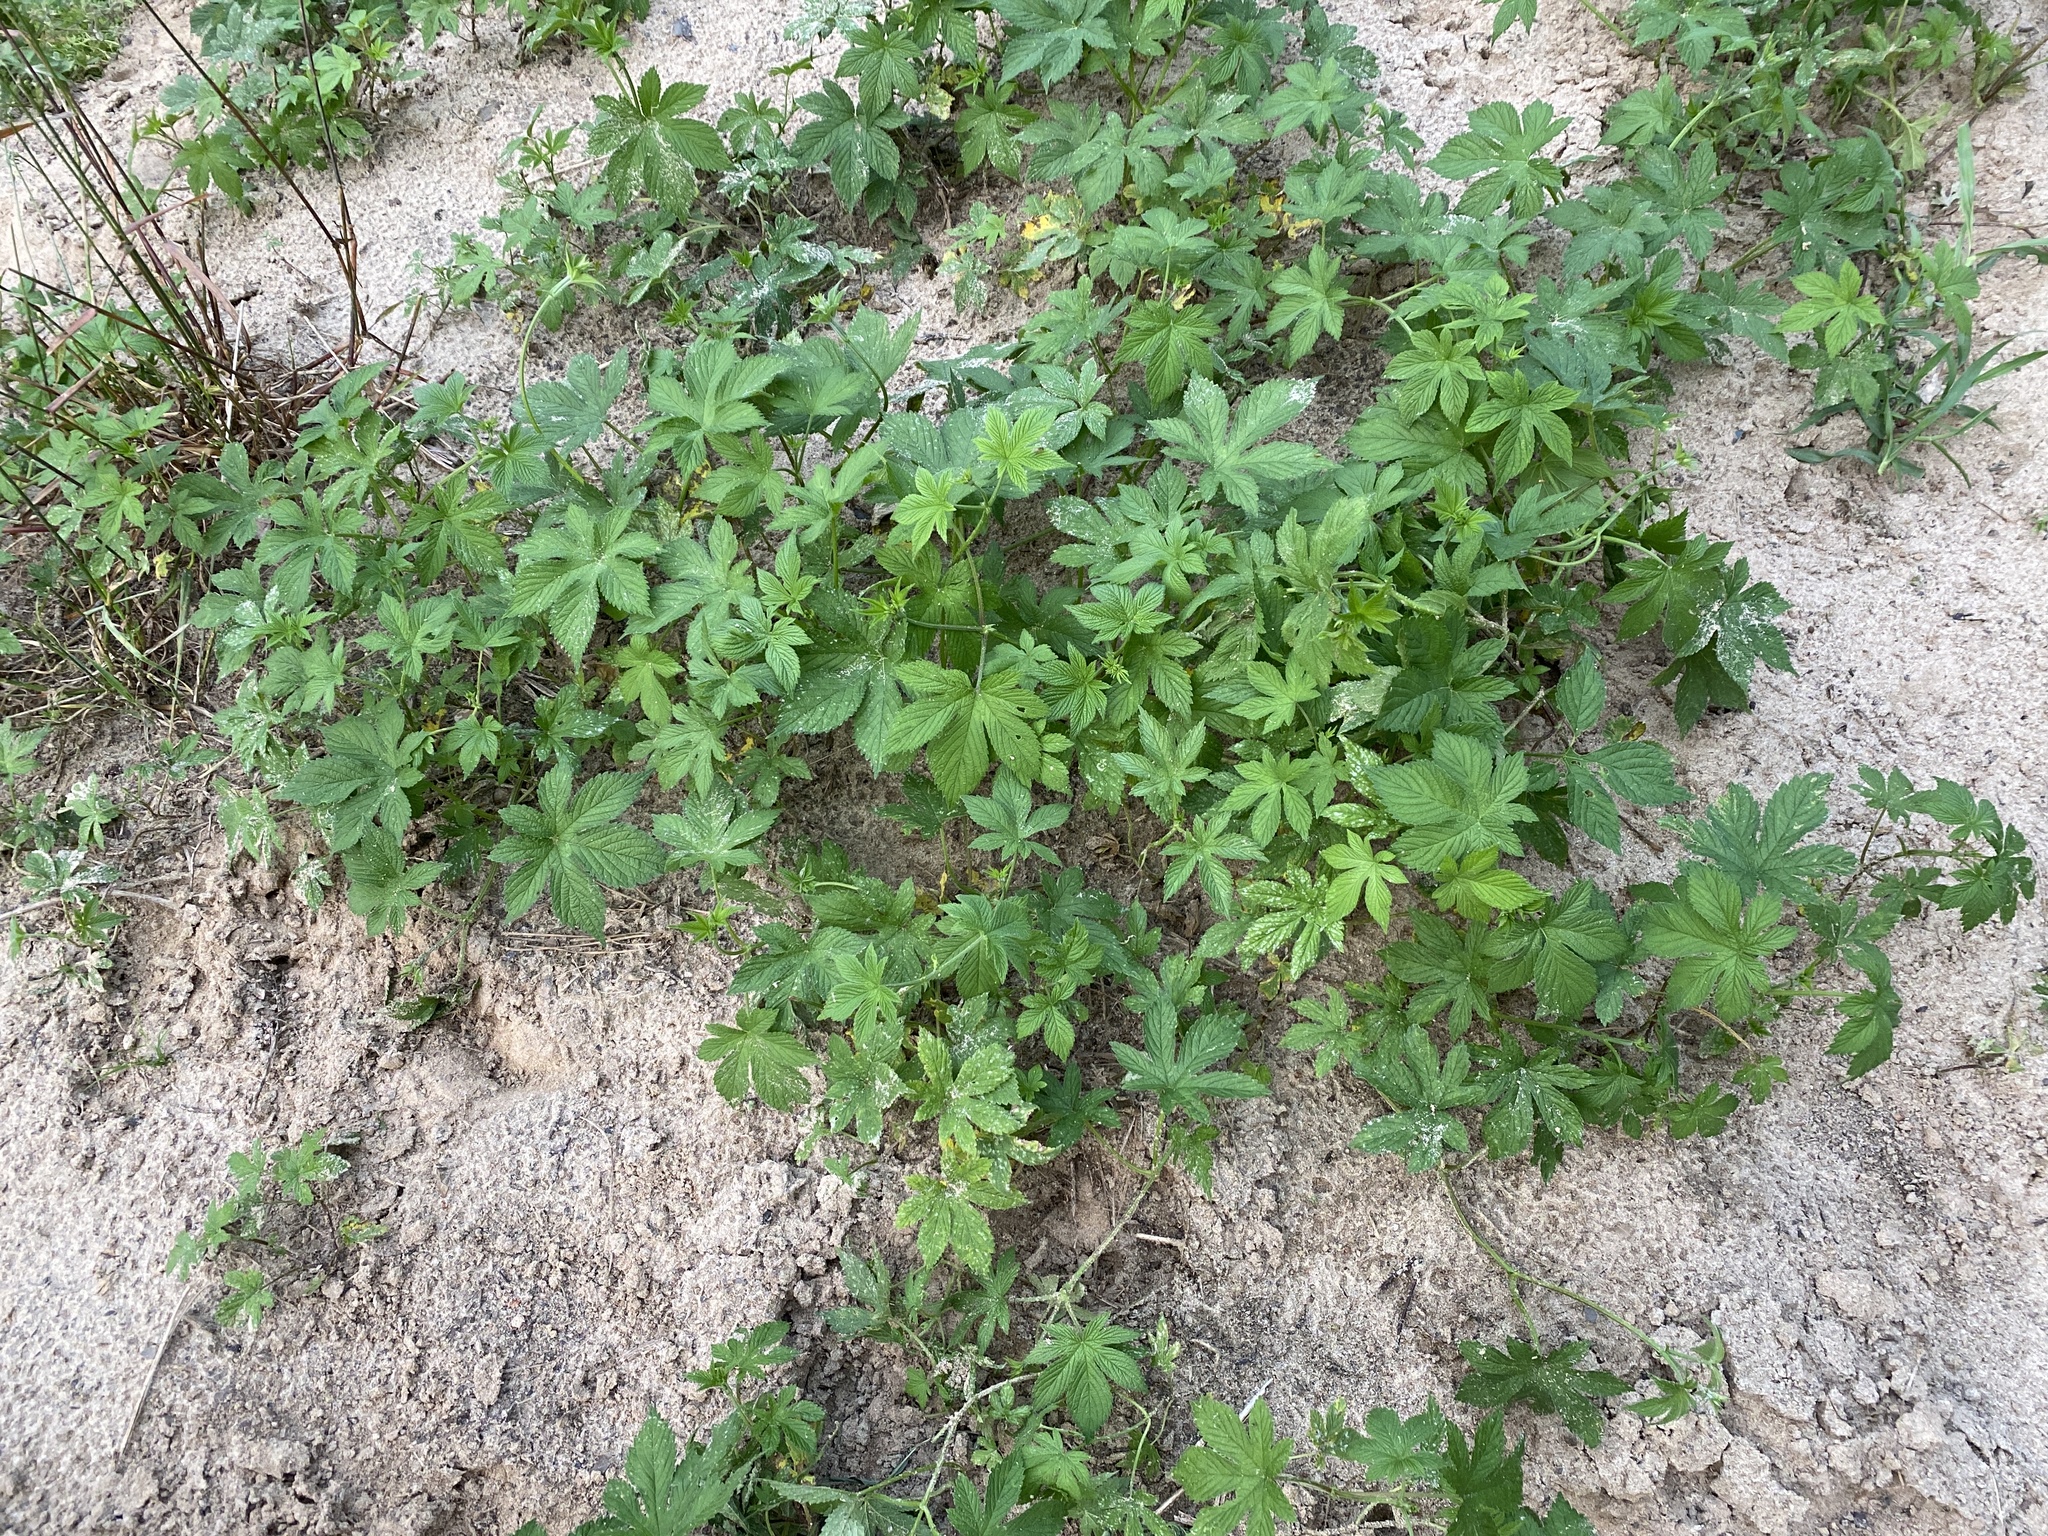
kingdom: Plantae
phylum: Tracheophyta
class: Magnoliopsida
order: Rosales
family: Cannabaceae
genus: Humulus
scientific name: Humulus scandens
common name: Japanese hop
